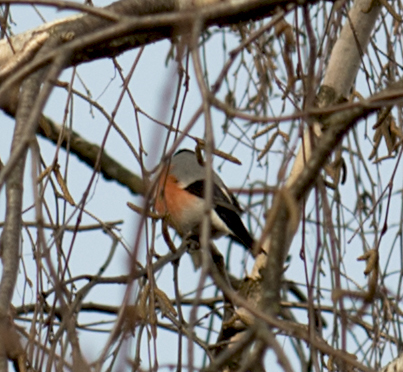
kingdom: Animalia
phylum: Chordata
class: Aves
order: Passeriformes
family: Fringillidae
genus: Pyrrhula
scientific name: Pyrrhula pyrrhula
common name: Eurasian bullfinch
